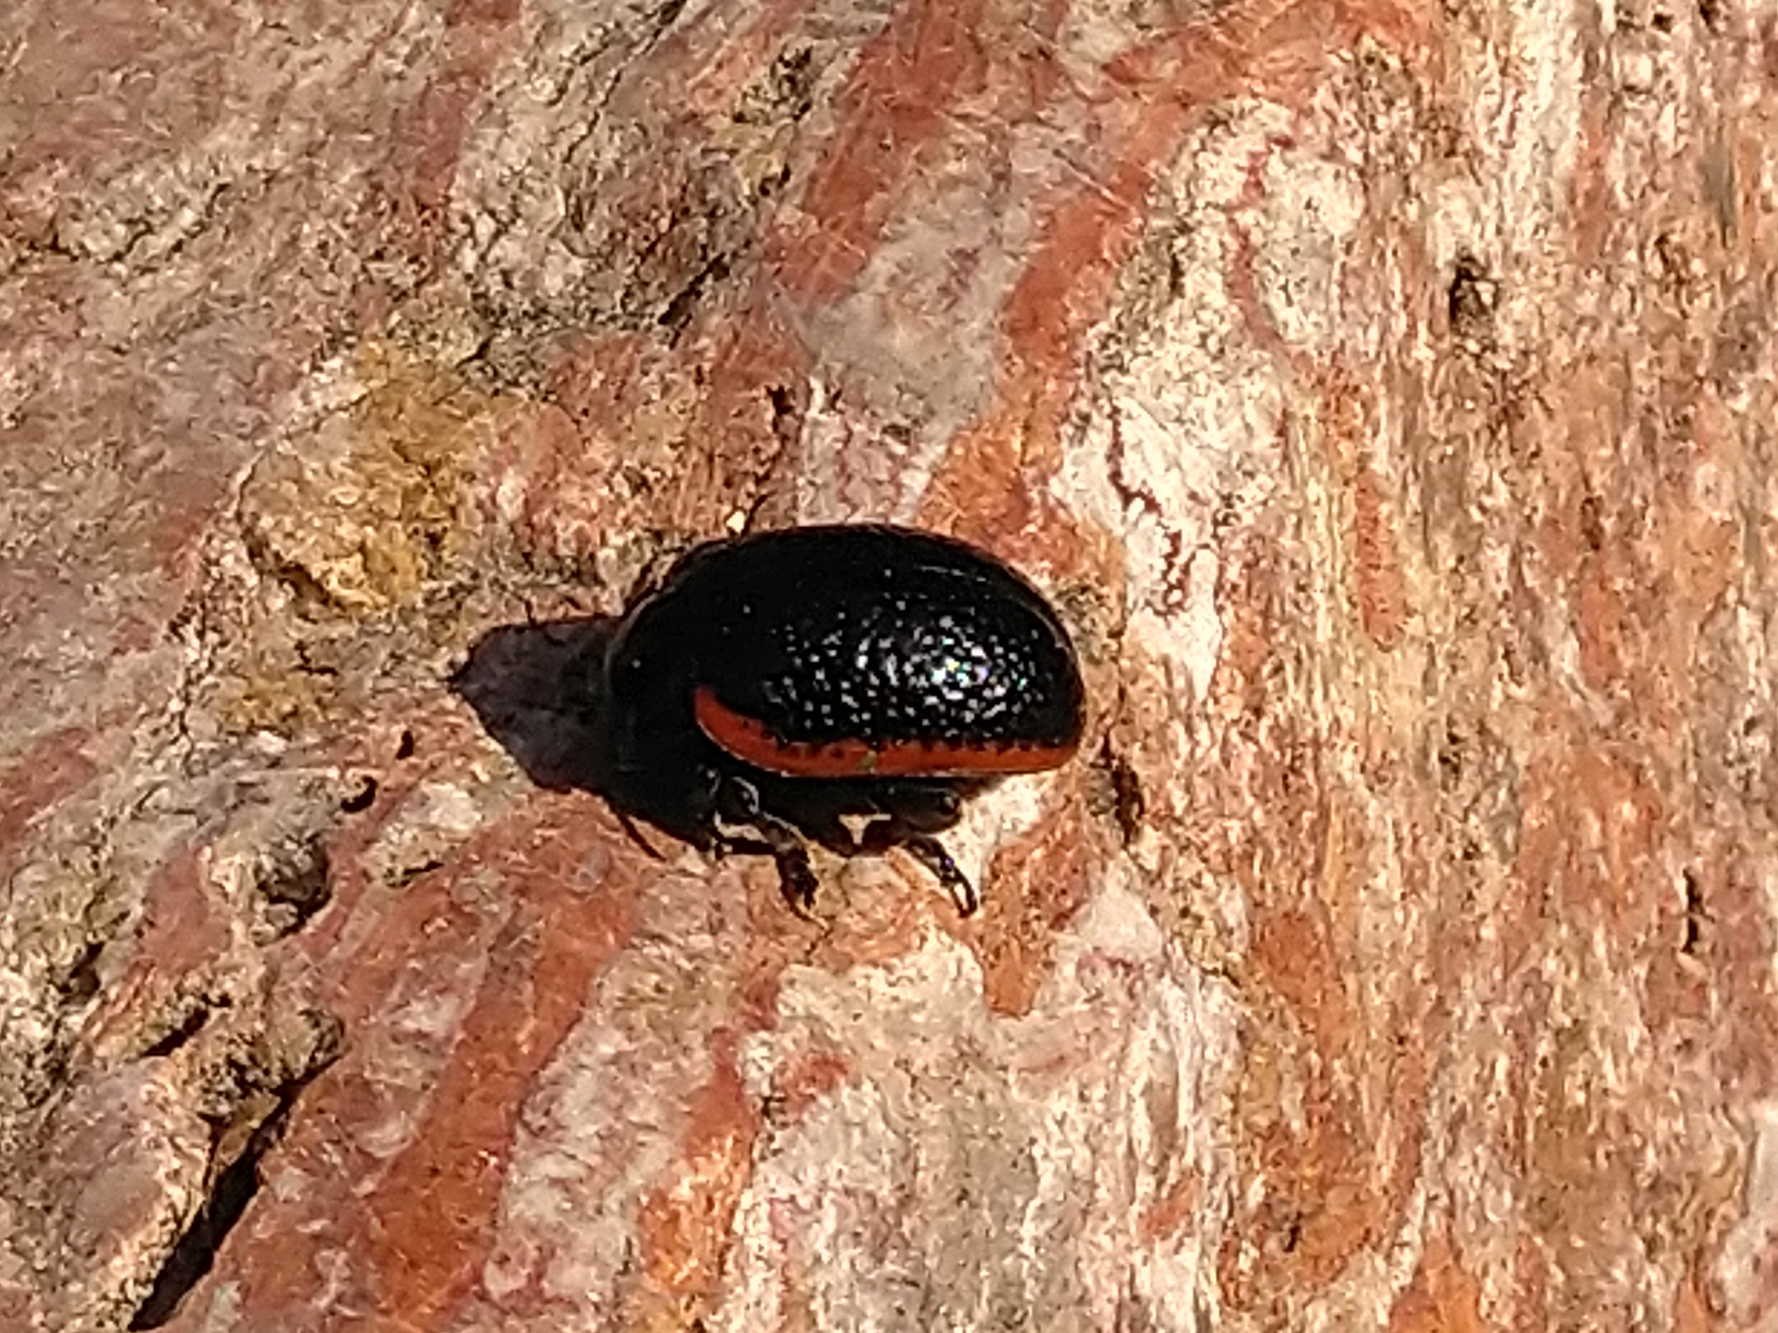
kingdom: Animalia
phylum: Arthropoda
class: Insecta
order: Coleoptera
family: Chrysomelidae
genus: Chrysolina
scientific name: Chrysolina gypsophilae
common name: Leaf beetle
